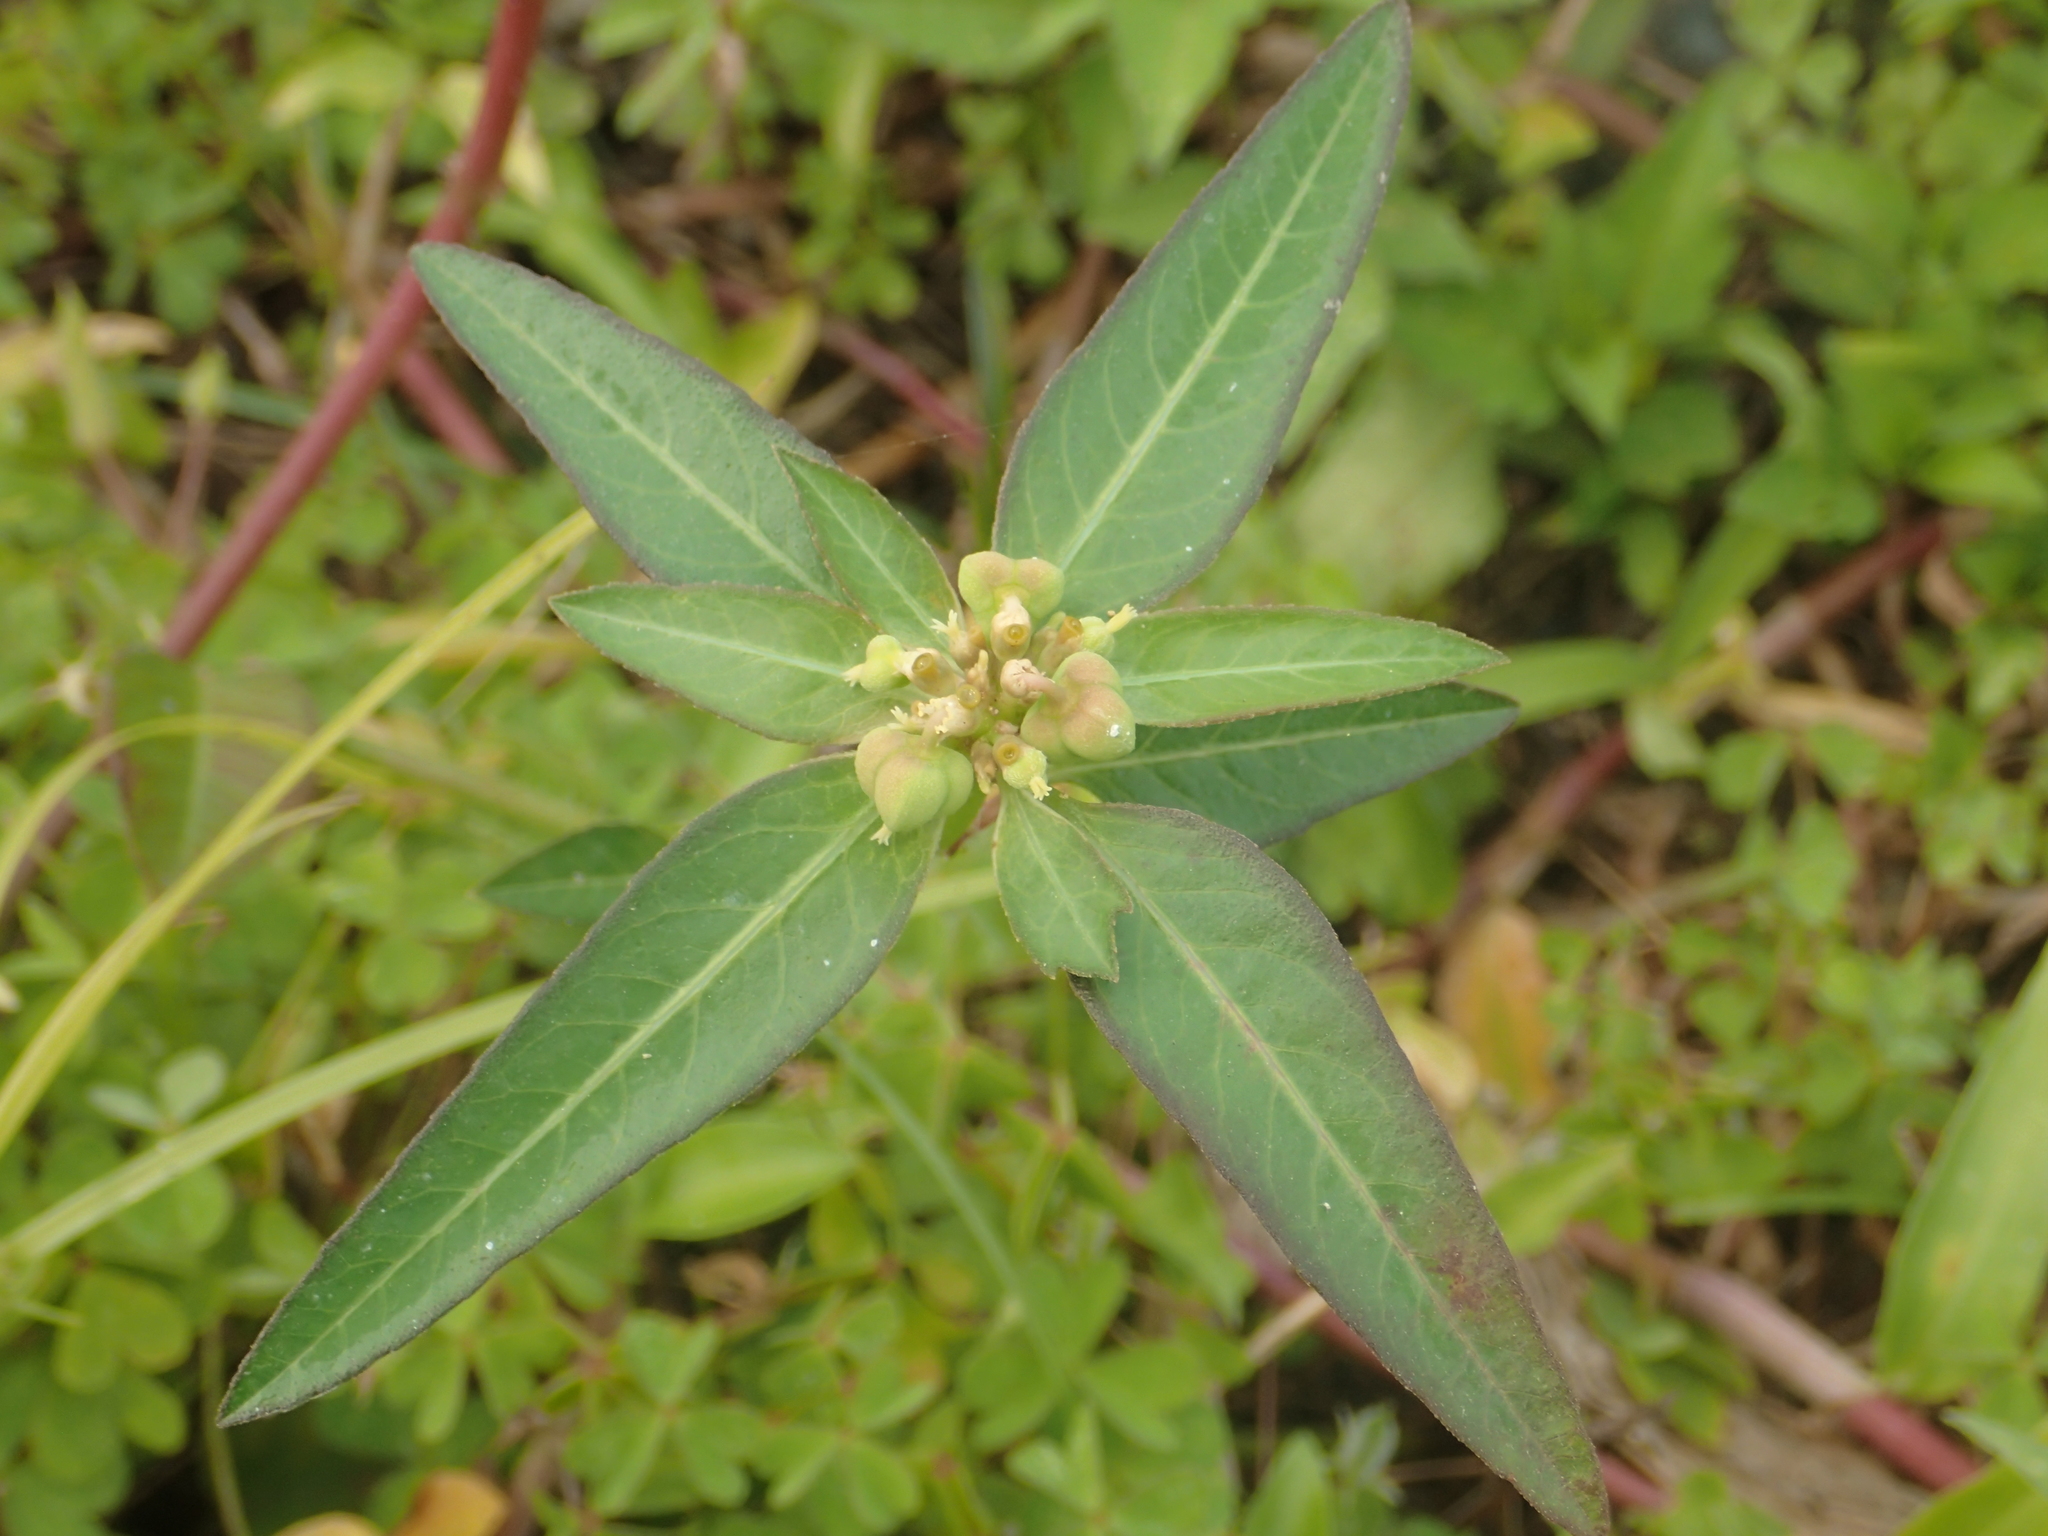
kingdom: Plantae
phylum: Tracheophyta
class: Magnoliopsida
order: Malpighiales
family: Euphorbiaceae
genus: Euphorbia
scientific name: Euphorbia heterophylla
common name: Mexican fireplant
